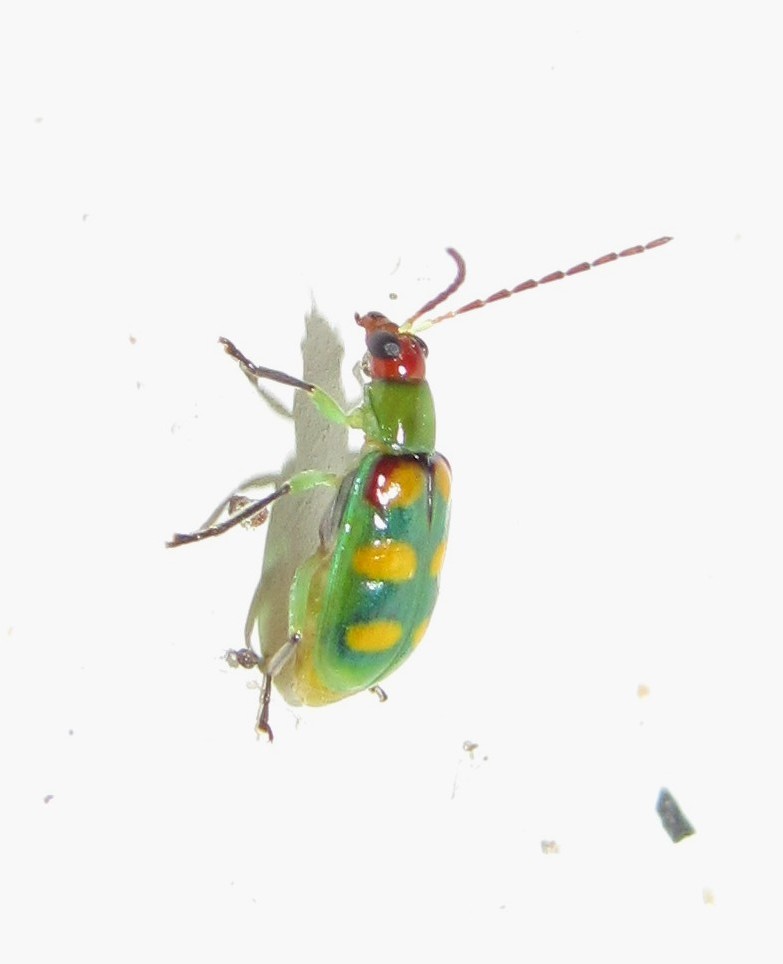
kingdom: Animalia
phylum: Arthropoda
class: Insecta
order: Coleoptera
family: Chrysomelidae
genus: Diabrotica
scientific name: Diabrotica speciosa
